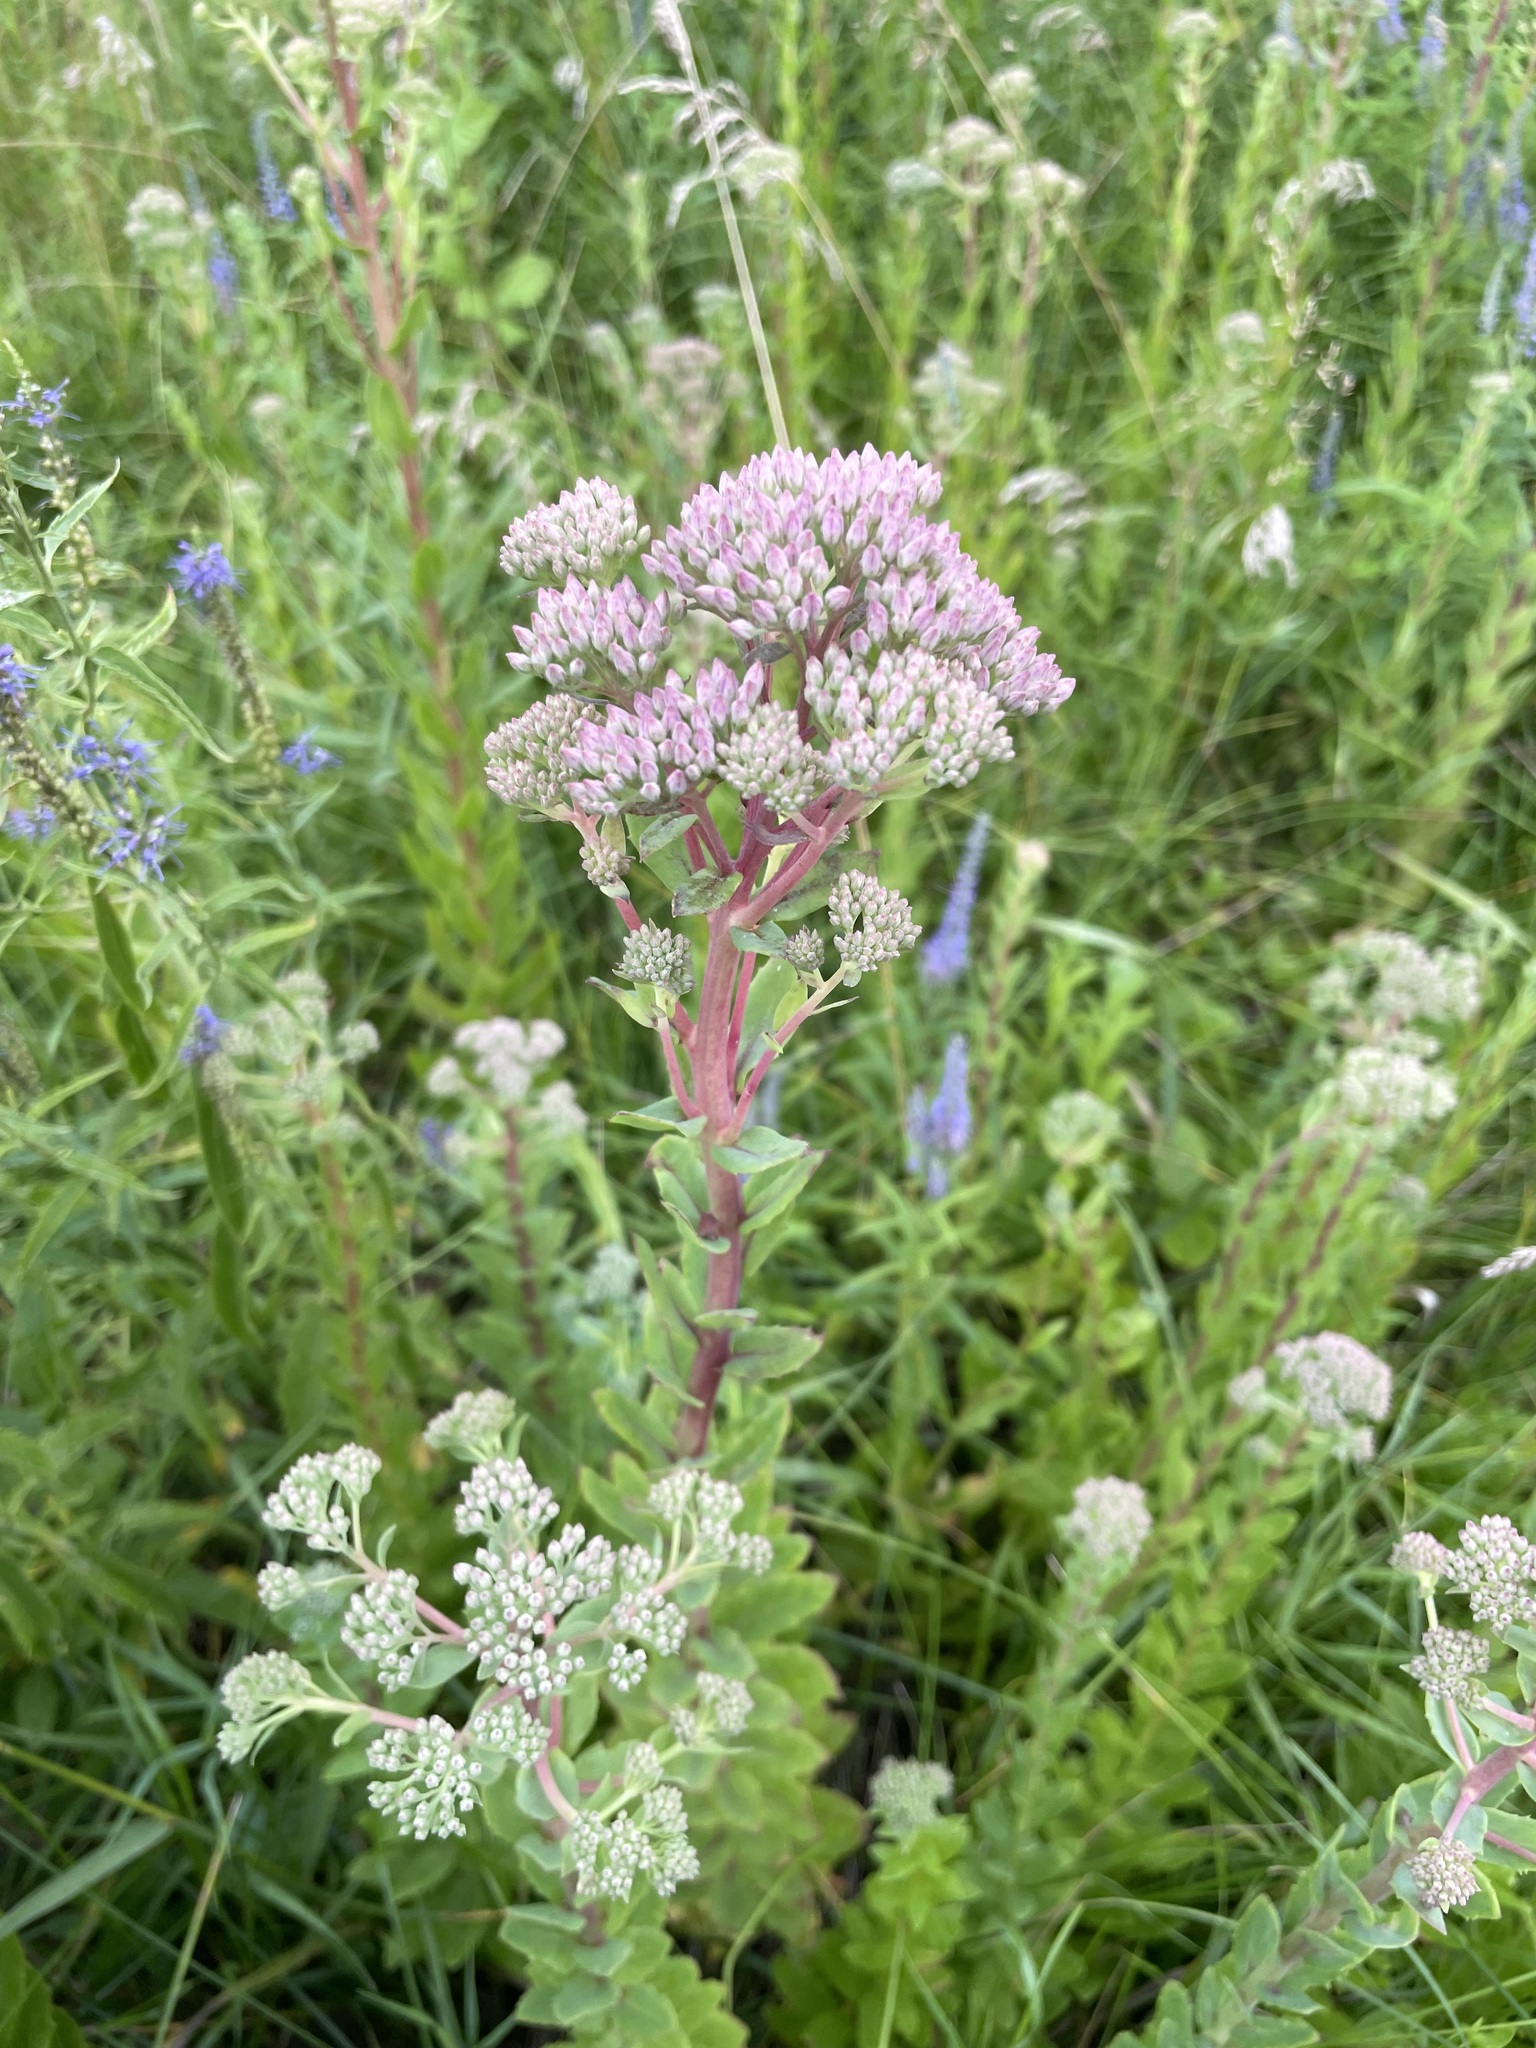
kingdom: Plantae
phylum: Tracheophyta
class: Magnoliopsida
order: Saxifragales
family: Crassulaceae
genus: Hylotelephium
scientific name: Hylotelephium telephium
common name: Live-forever
